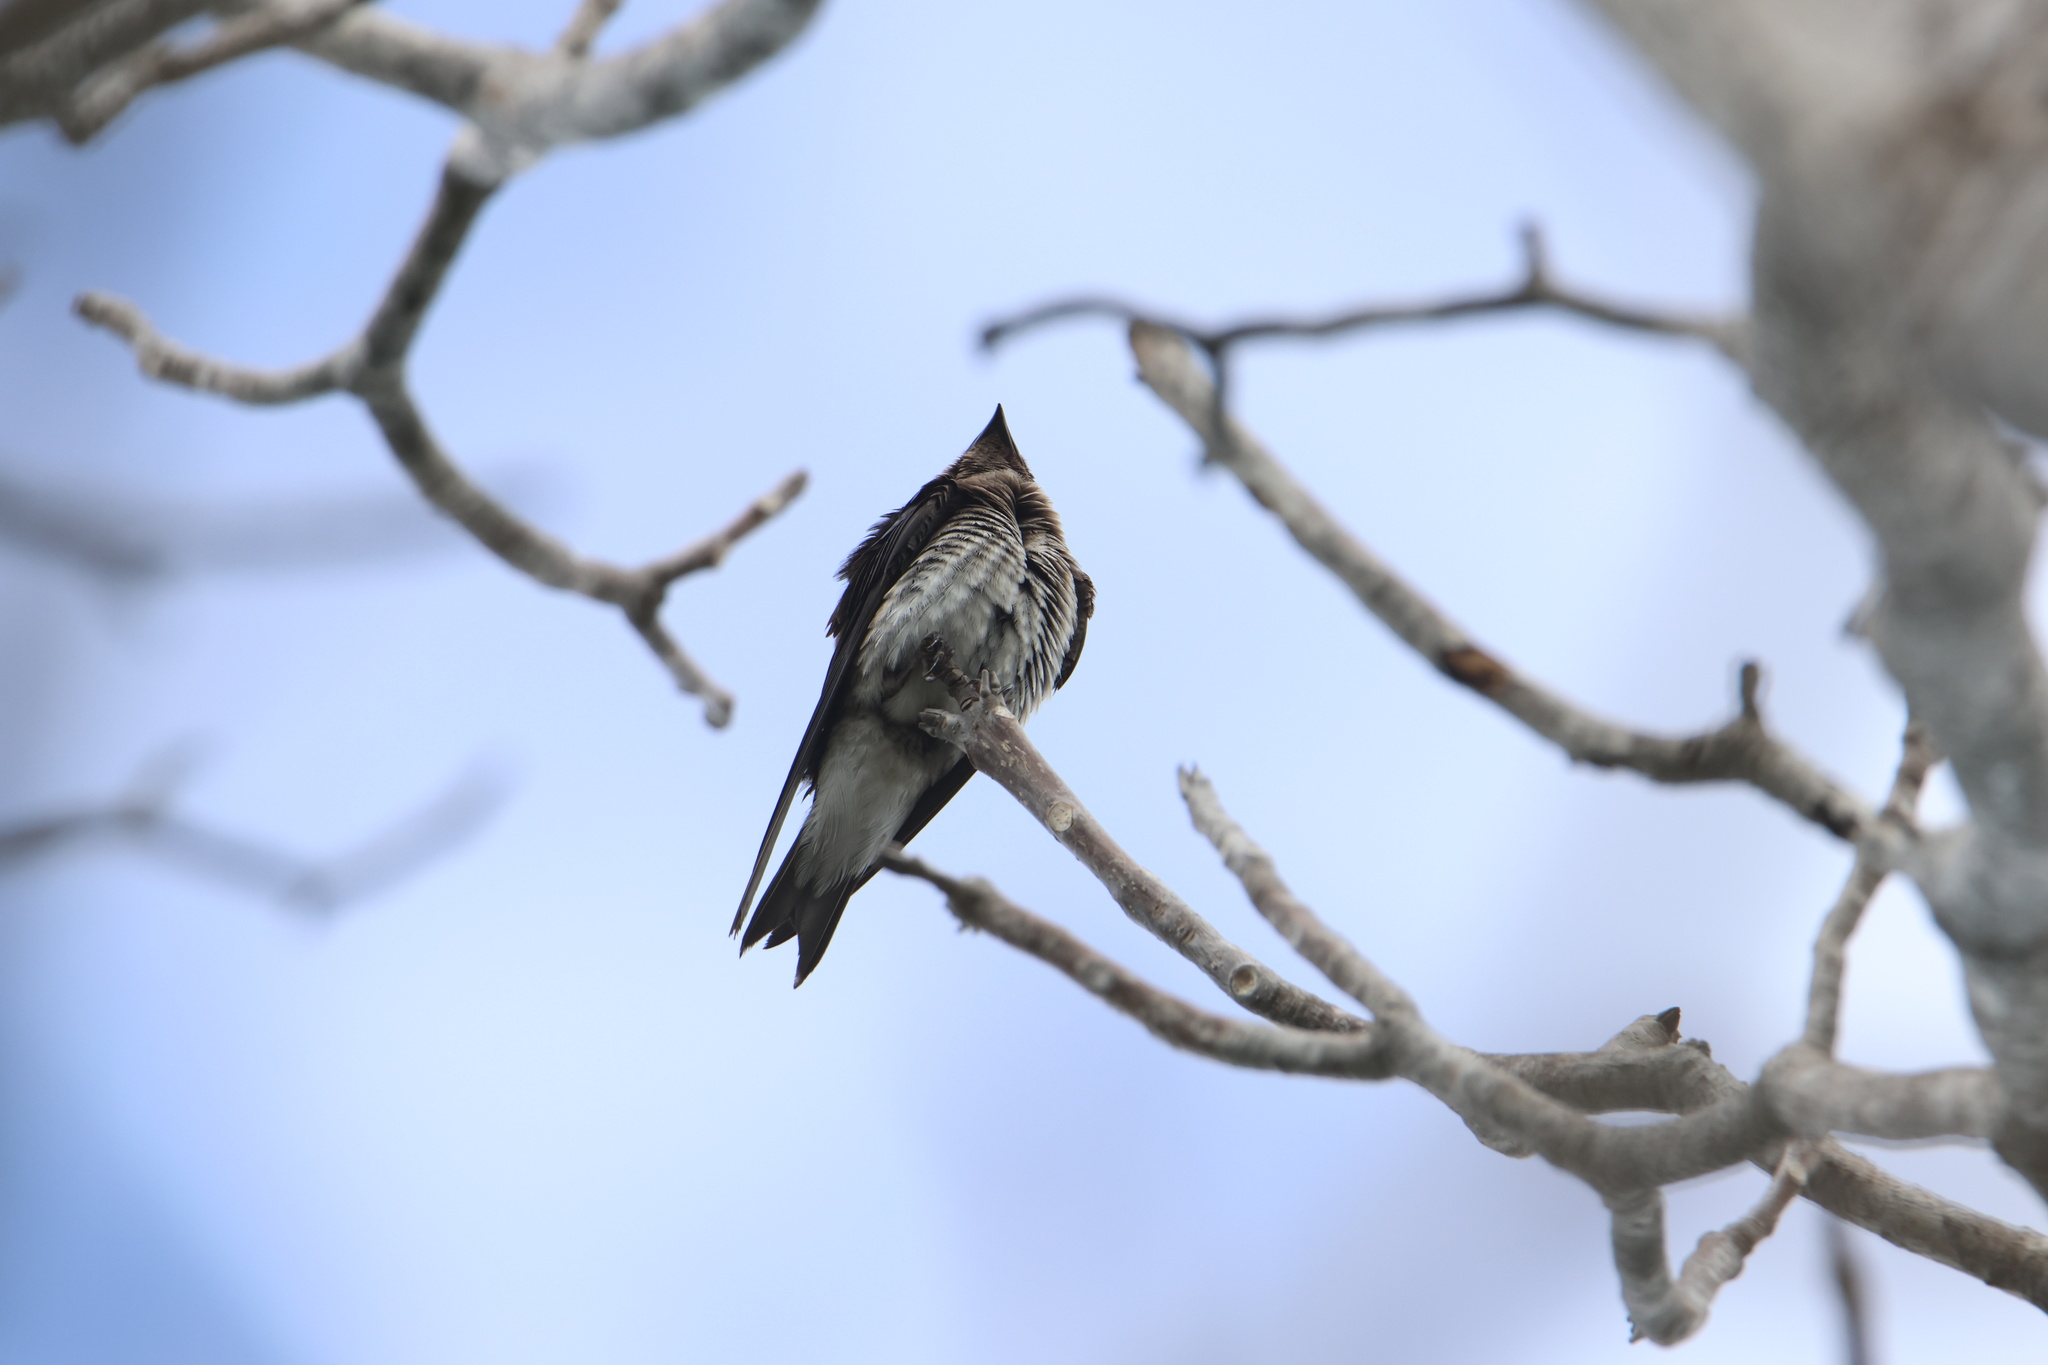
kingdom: Animalia
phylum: Chordata
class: Aves
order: Passeriformes
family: Hirundinidae
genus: Progne
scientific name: Progne chalybea
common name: Grey-breasted martin
